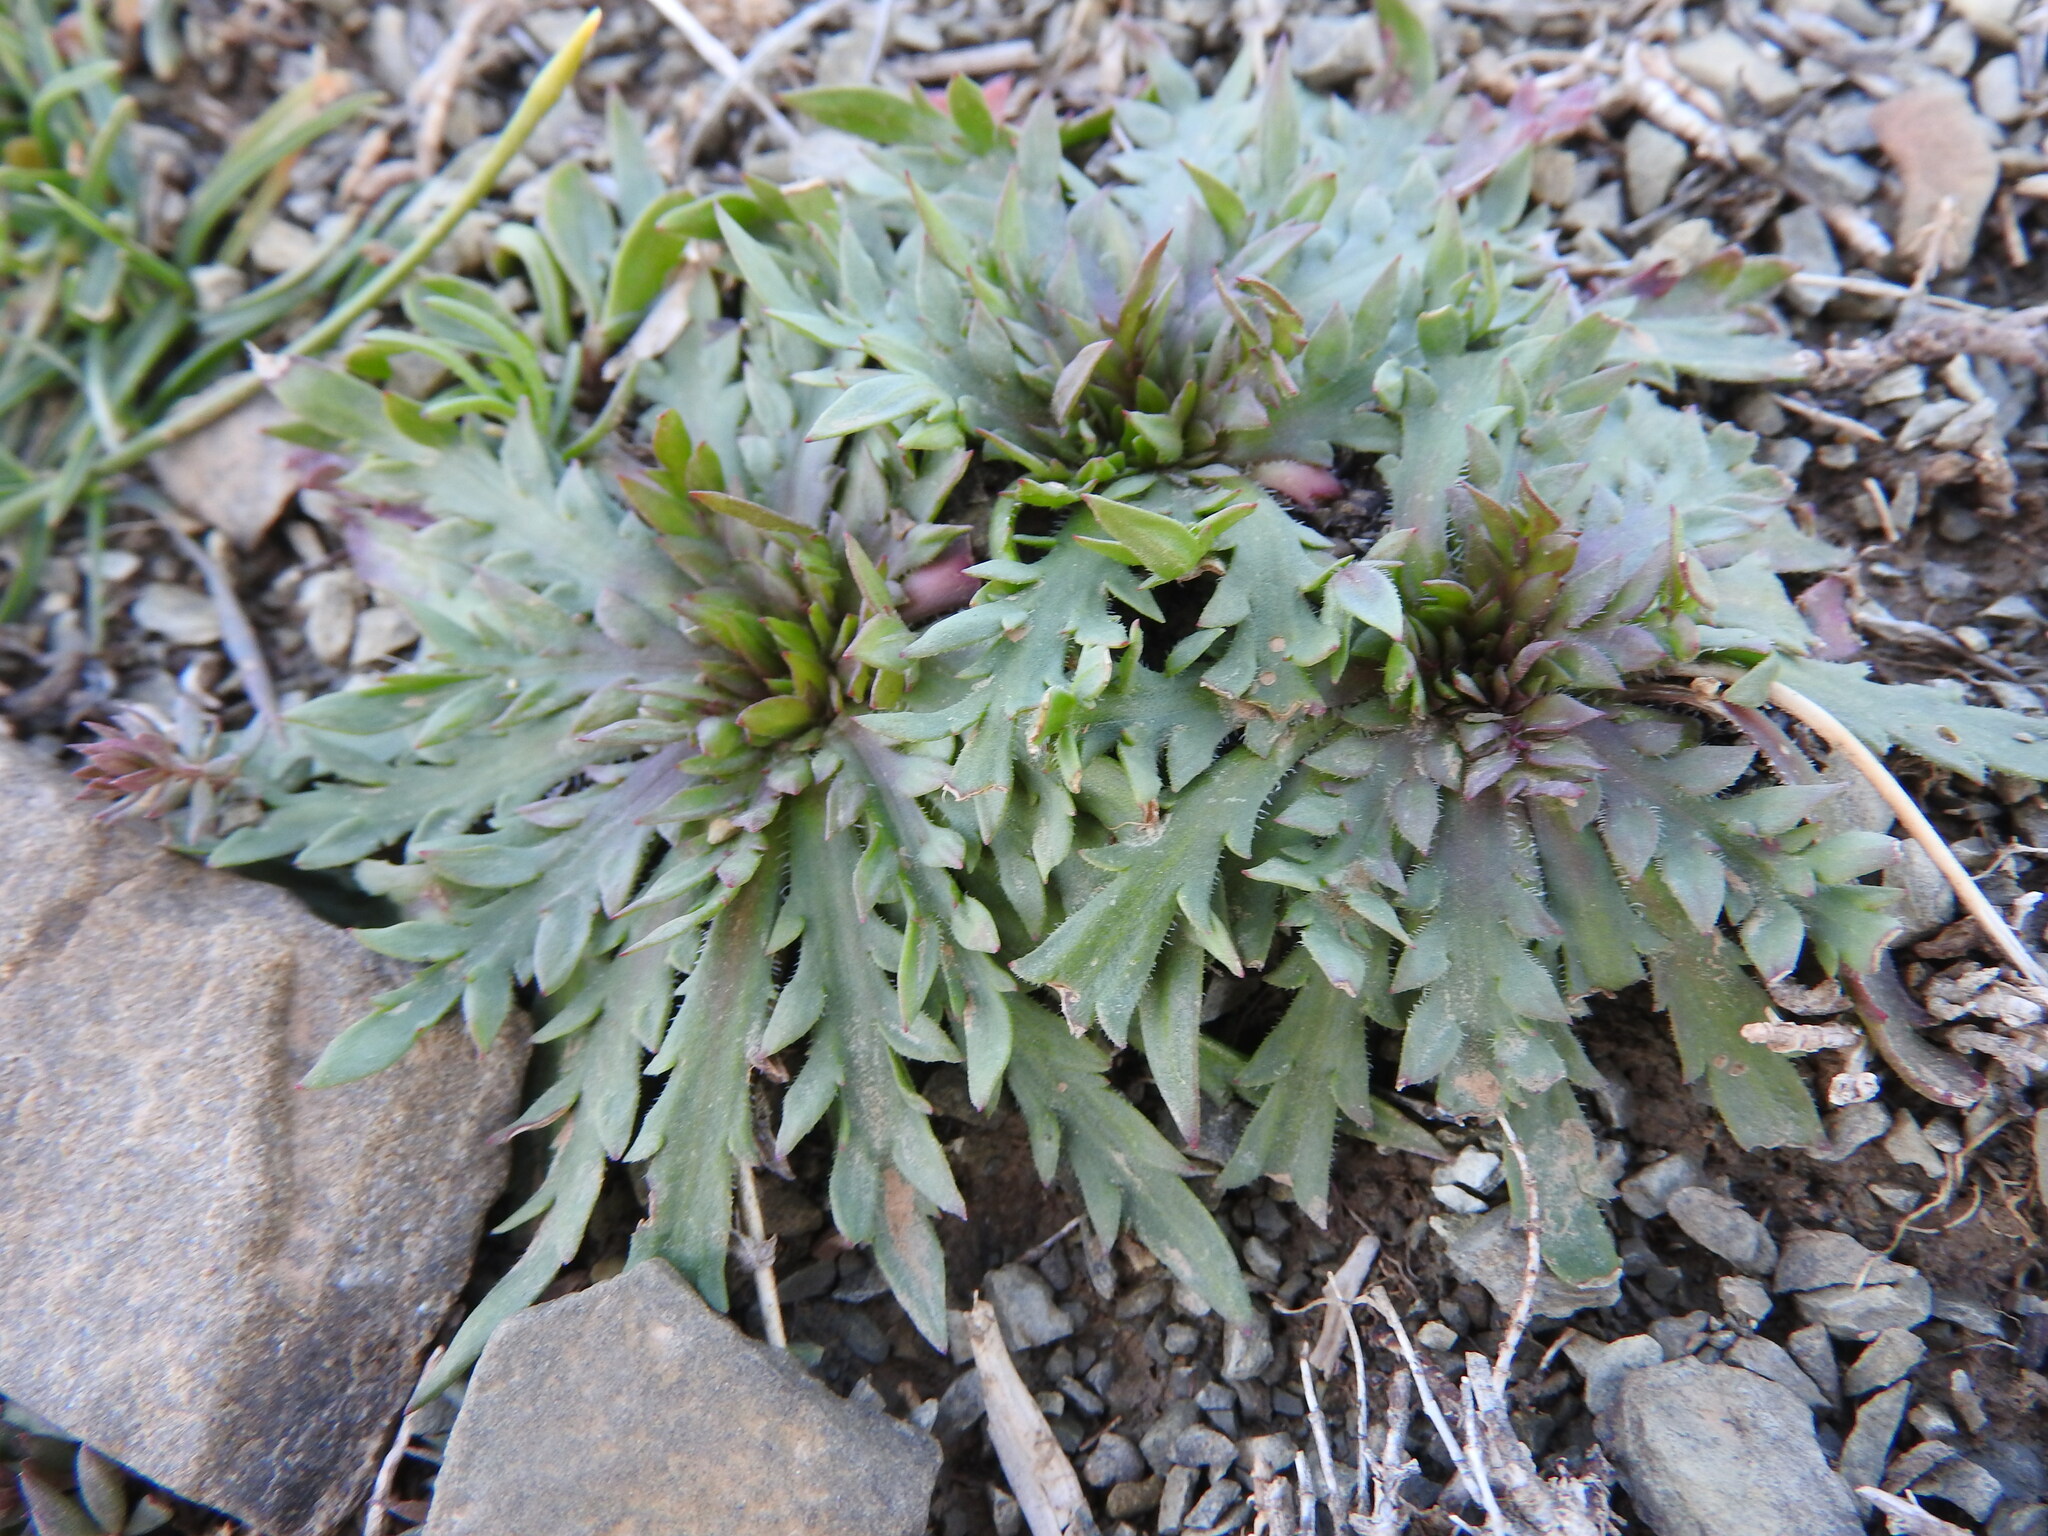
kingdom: Plantae
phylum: Tracheophyta
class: Magnoliopsida
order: Lamiales
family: Plantaginaceae
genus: Plantago
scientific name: Plantago coronopus
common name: Buck's-horn plantain
